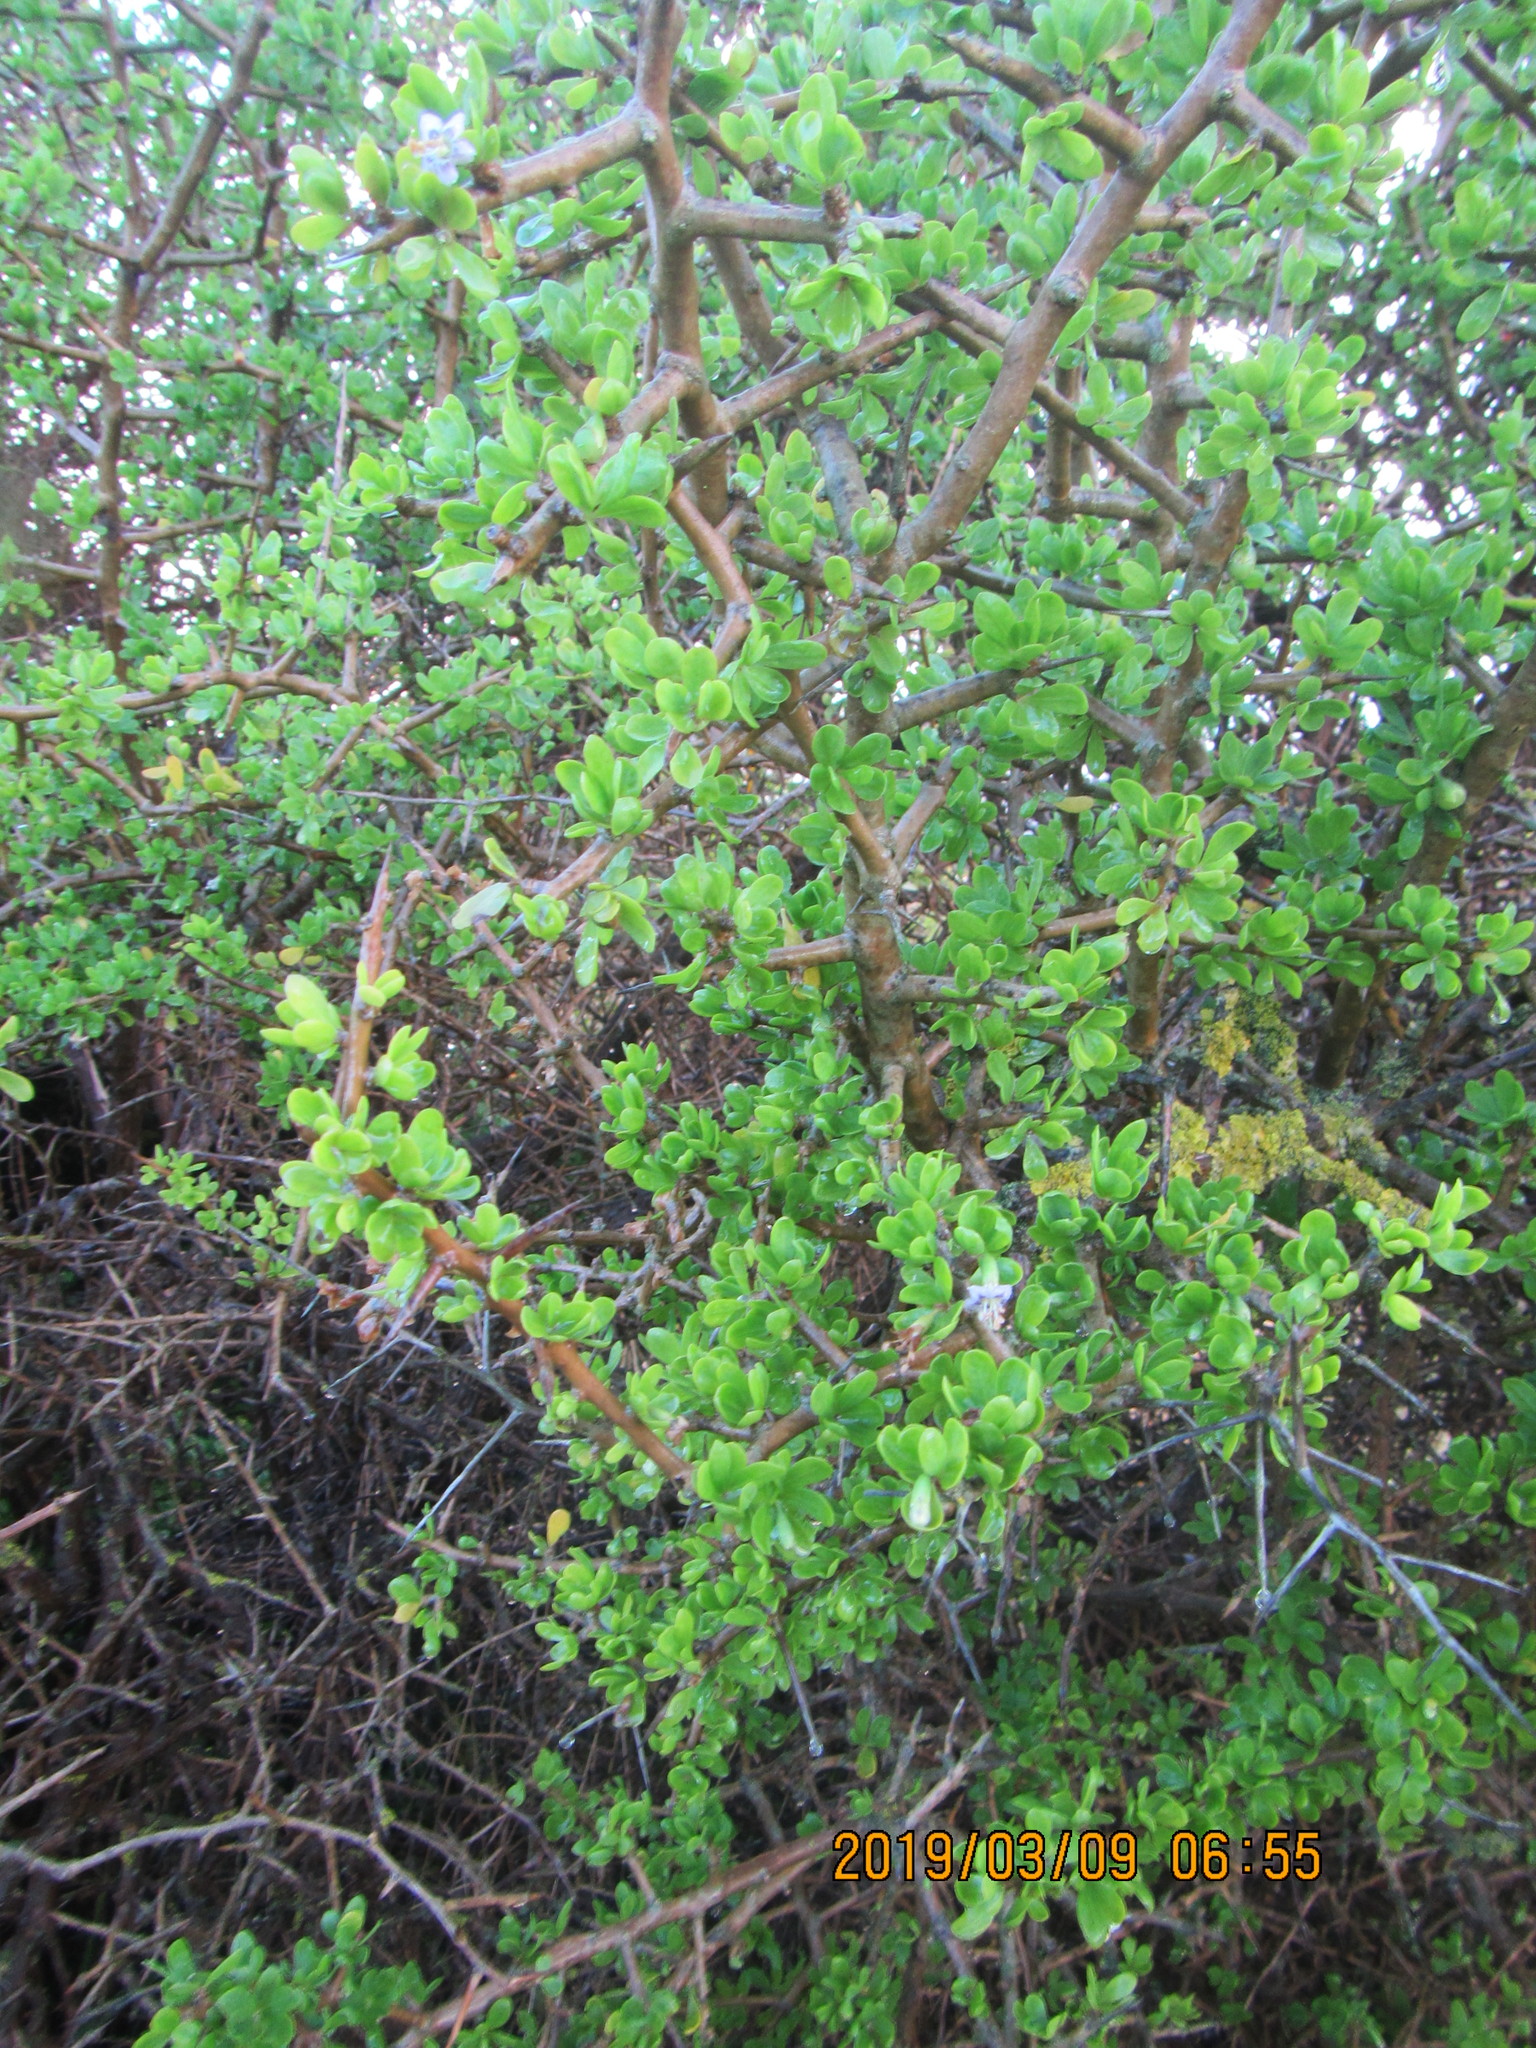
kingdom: Plantae
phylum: Tracheophyta
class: Magnoliopsida
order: Solanales
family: Solanaceae
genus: Lycium
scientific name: Lycium ferocissimum
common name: African boxthorn
